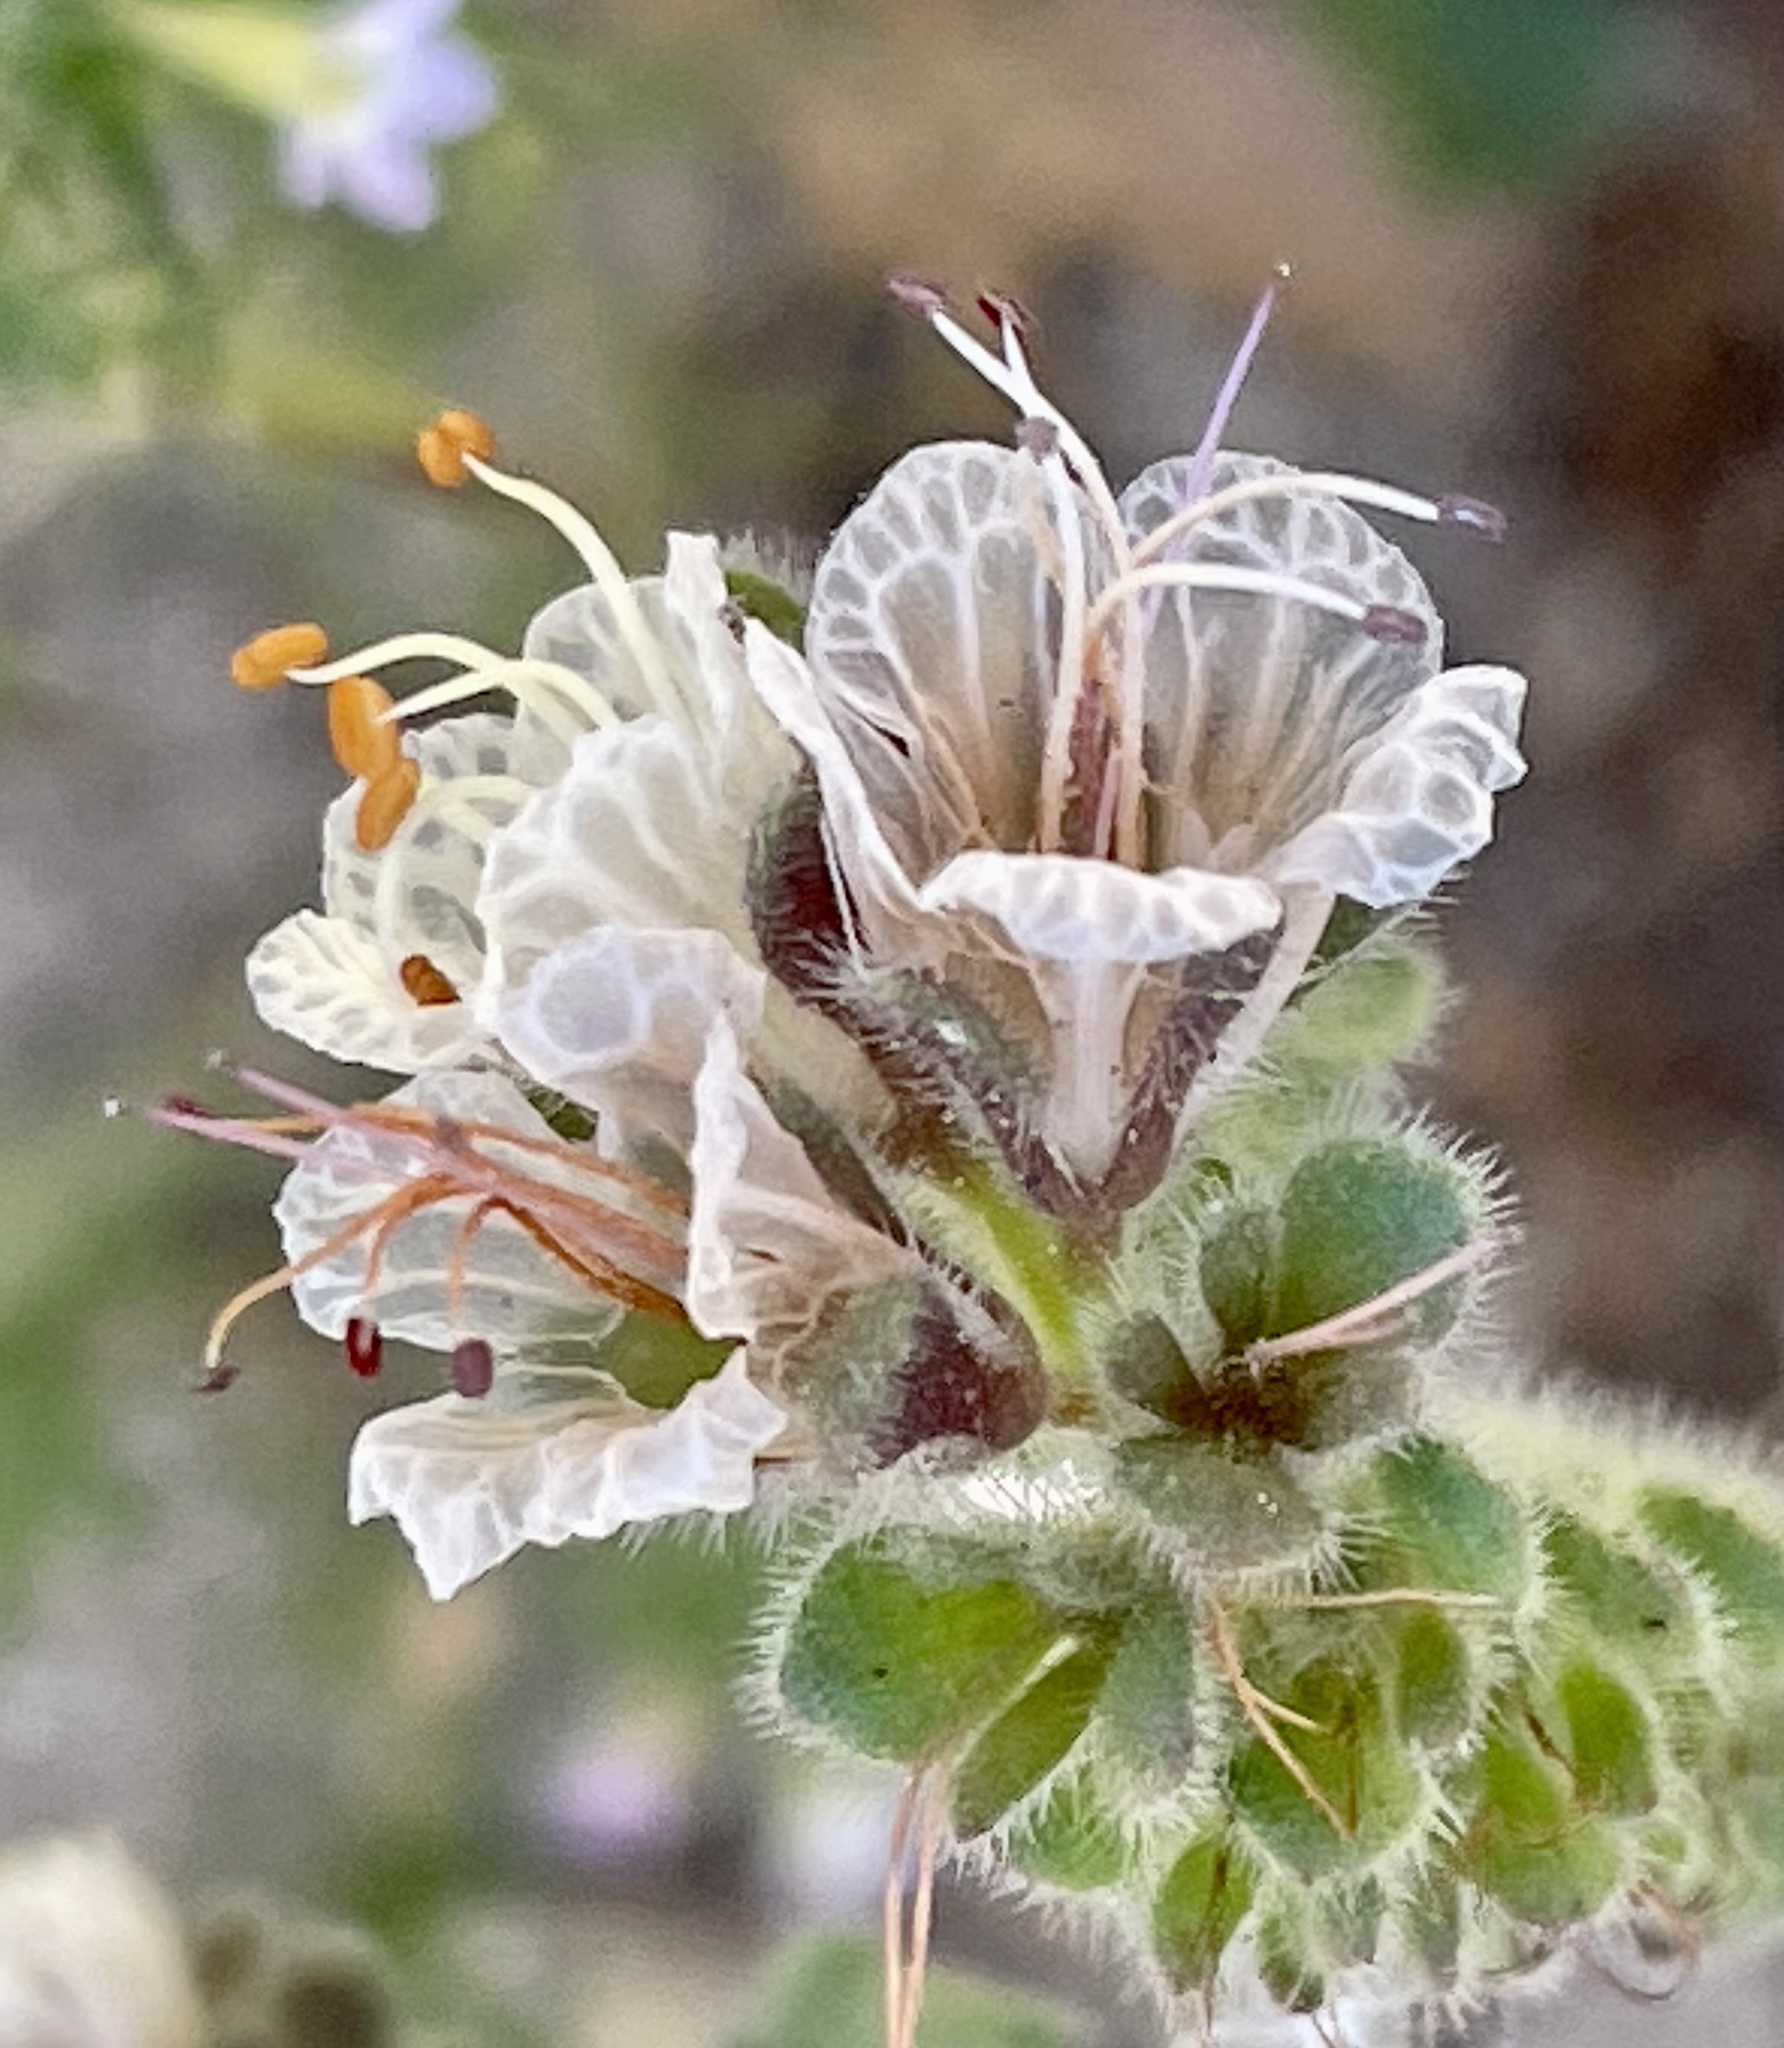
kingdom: Plantae
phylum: Tracheophyta
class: Magnoliopsida
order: Boraginales
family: Hydrophyllaceae
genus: Phacelia
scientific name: Phacelia grisea
